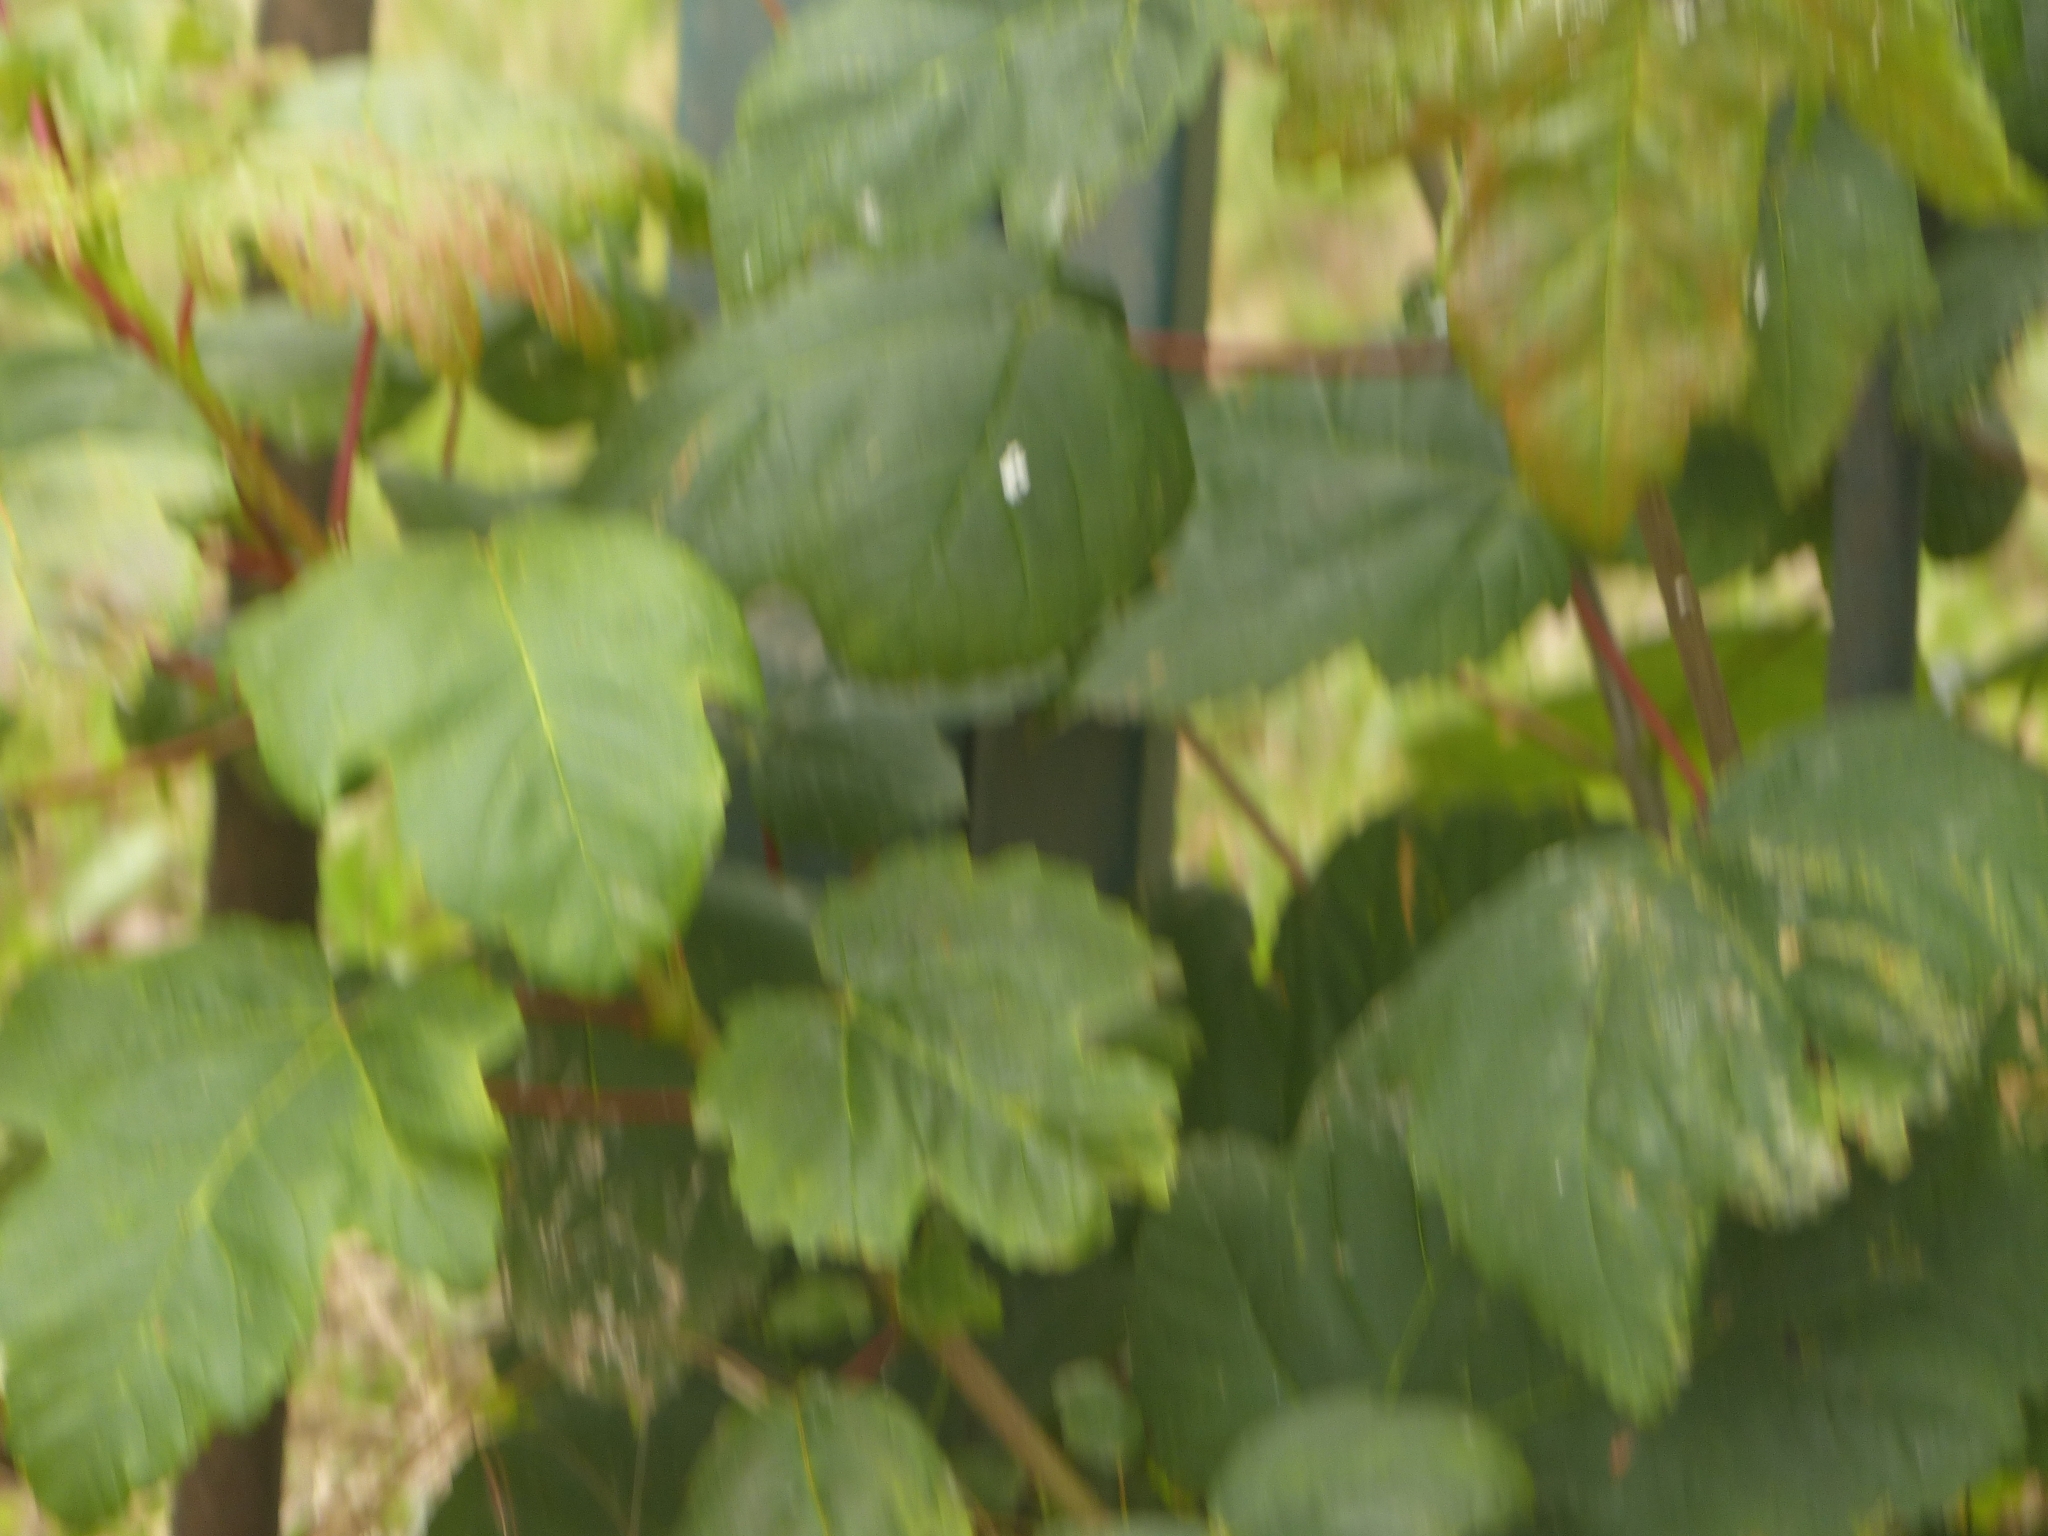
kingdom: Plantae
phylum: Tracheophyta
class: Magnoliopsida
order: Sapindales
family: Sapindaceae
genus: Acer
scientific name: Acer pseudoplatanus
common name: Sycamore
